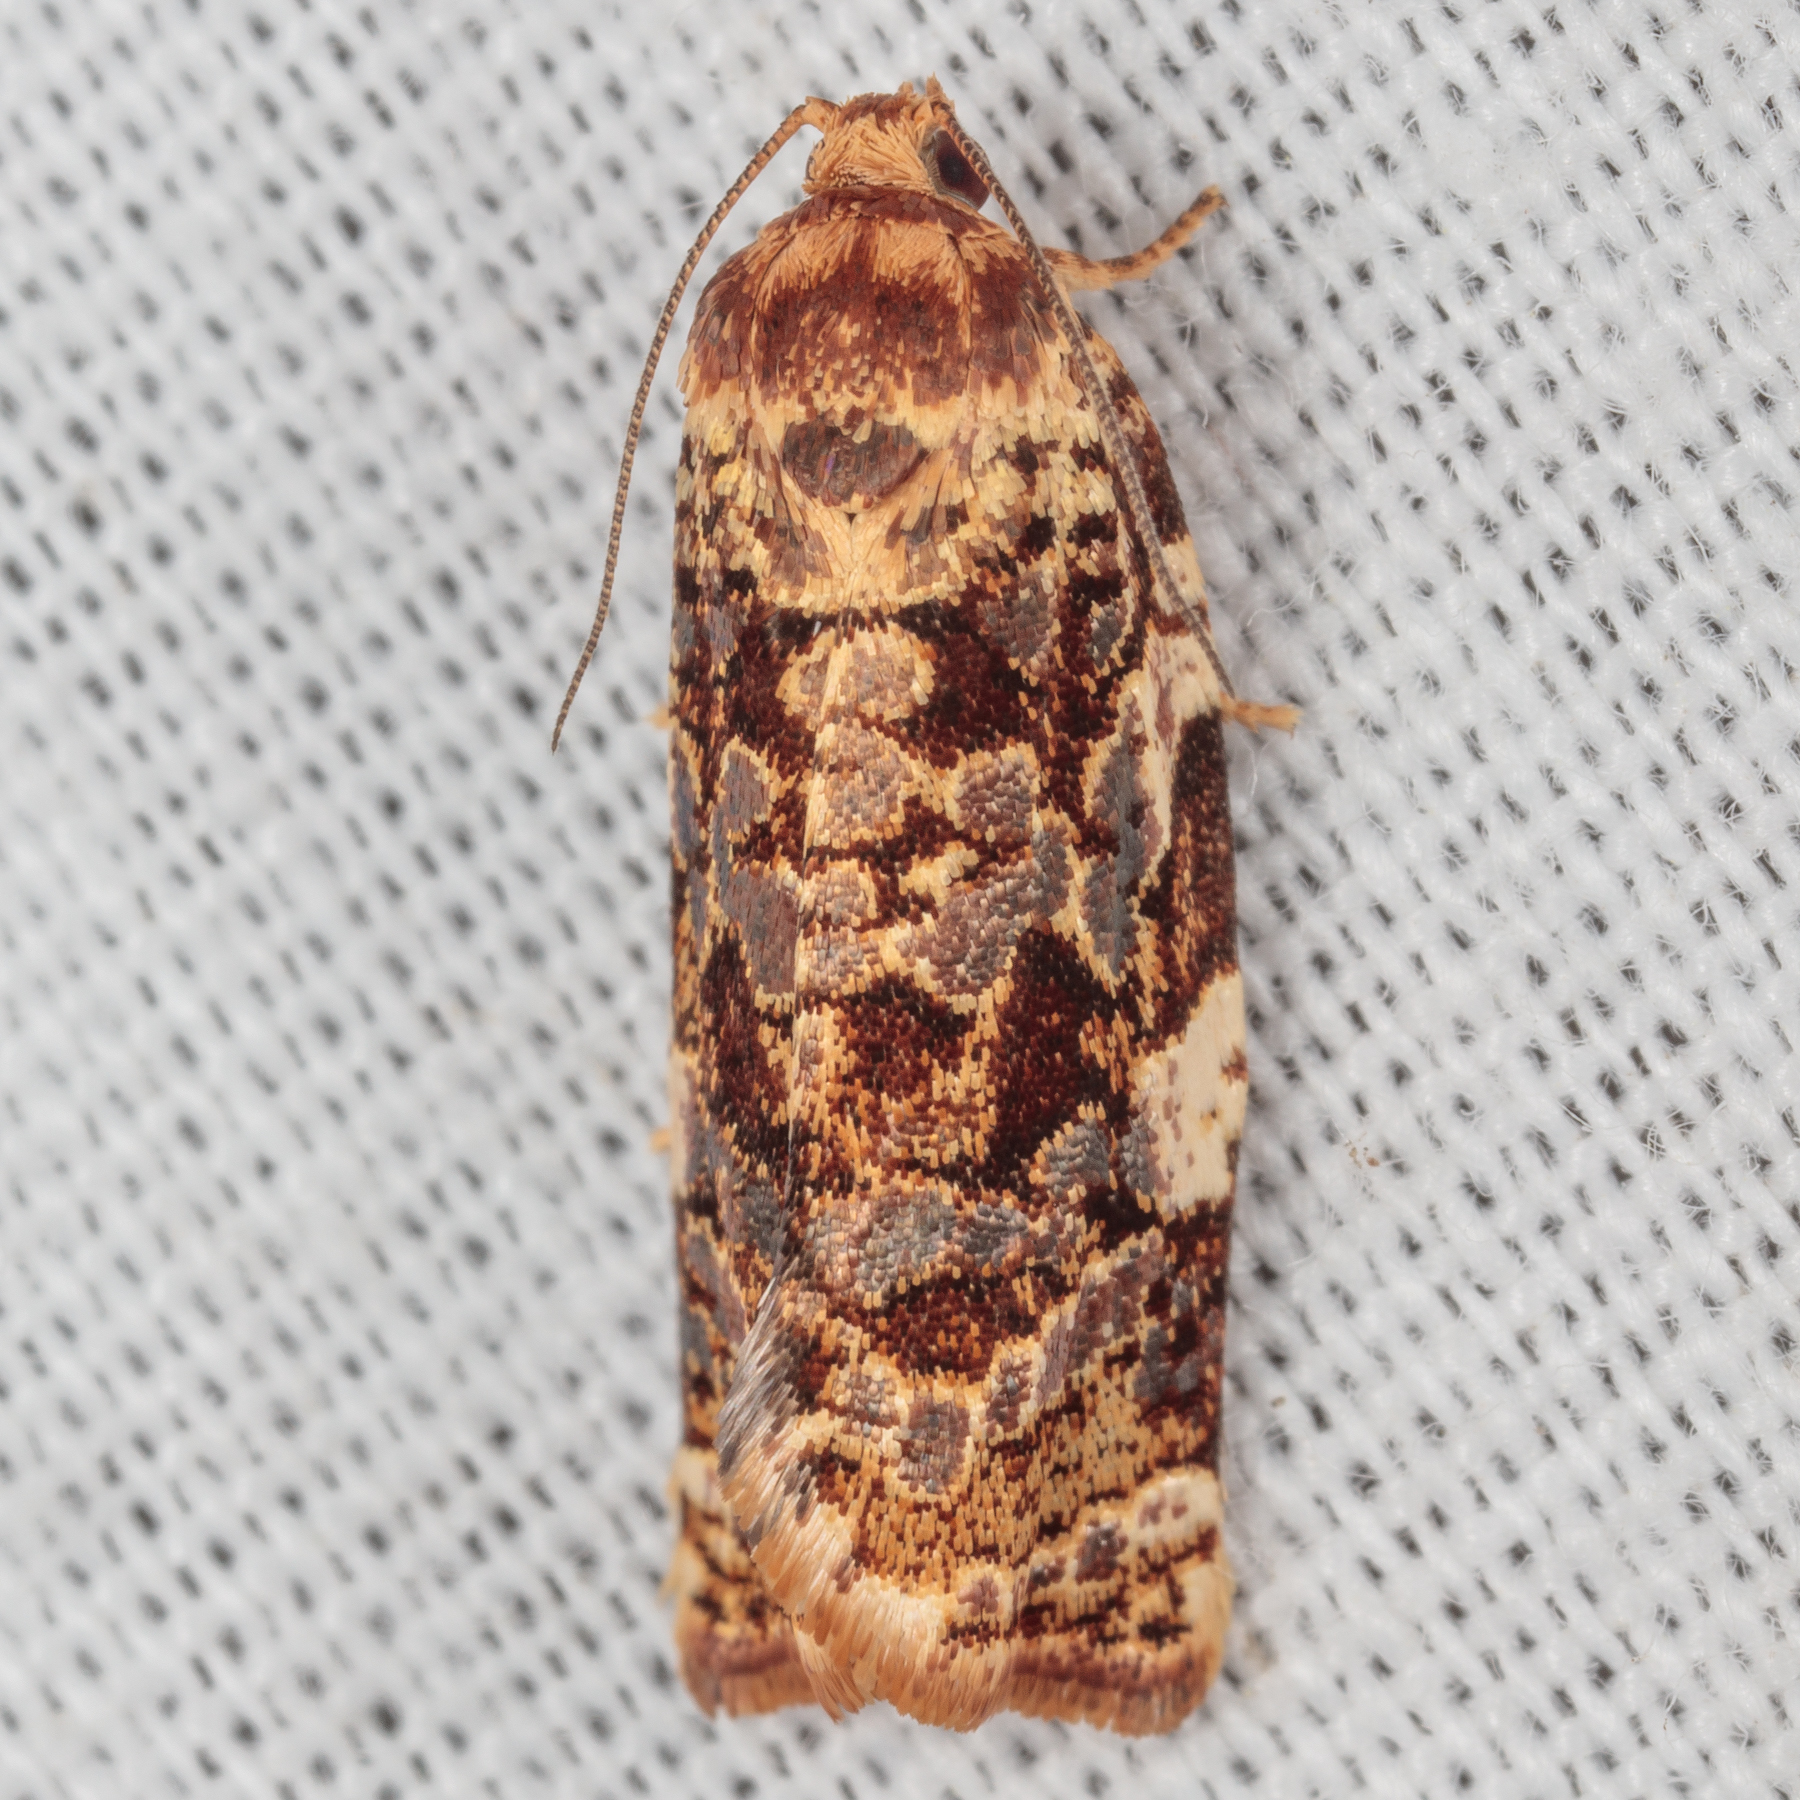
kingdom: Animalia
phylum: Arthropoda
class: Insecta
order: Lepidoptera
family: Tortricidae
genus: Archips
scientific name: Archips argyrospila
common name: Fruit-tree leafroller moth
